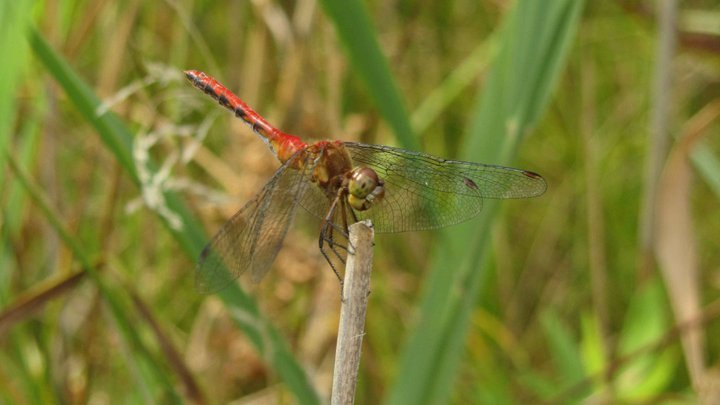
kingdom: Animalia
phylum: Arthropoda
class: Insecta
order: Odonata
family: Libellulidae
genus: Sympetrum
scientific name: Sympetrum
